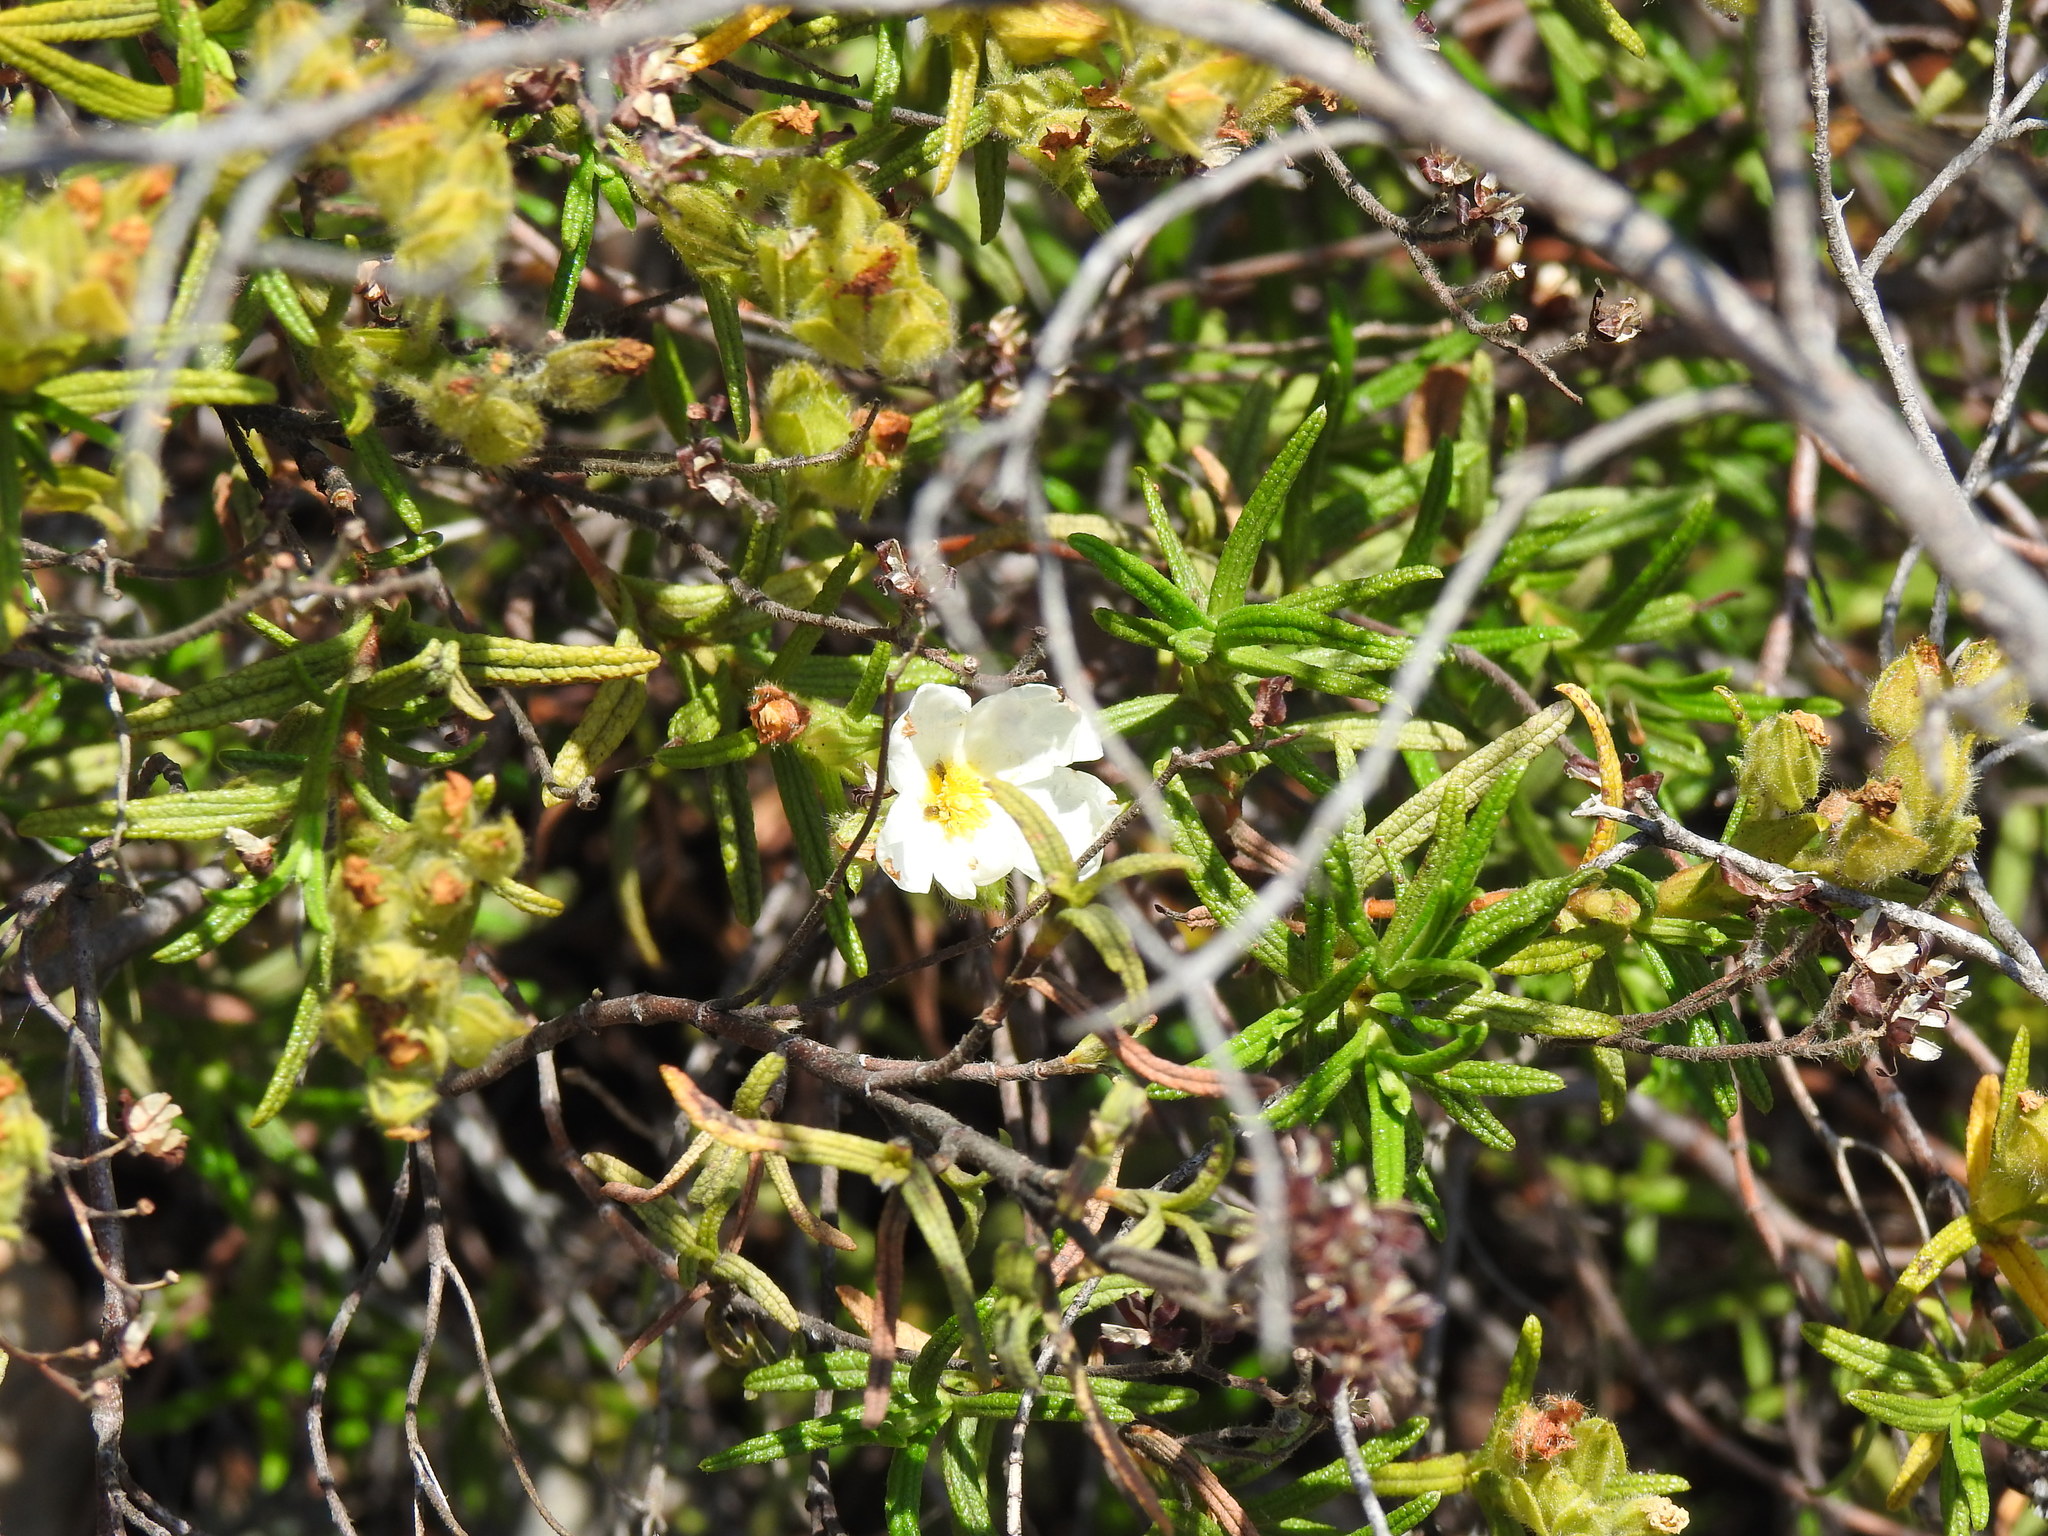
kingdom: Plantae
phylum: Tracheophyta
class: Magnoliopsida
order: Malvales
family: Cistaceae
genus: Cistus
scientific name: Cistus monspeliensis
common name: Montpelier cistus
